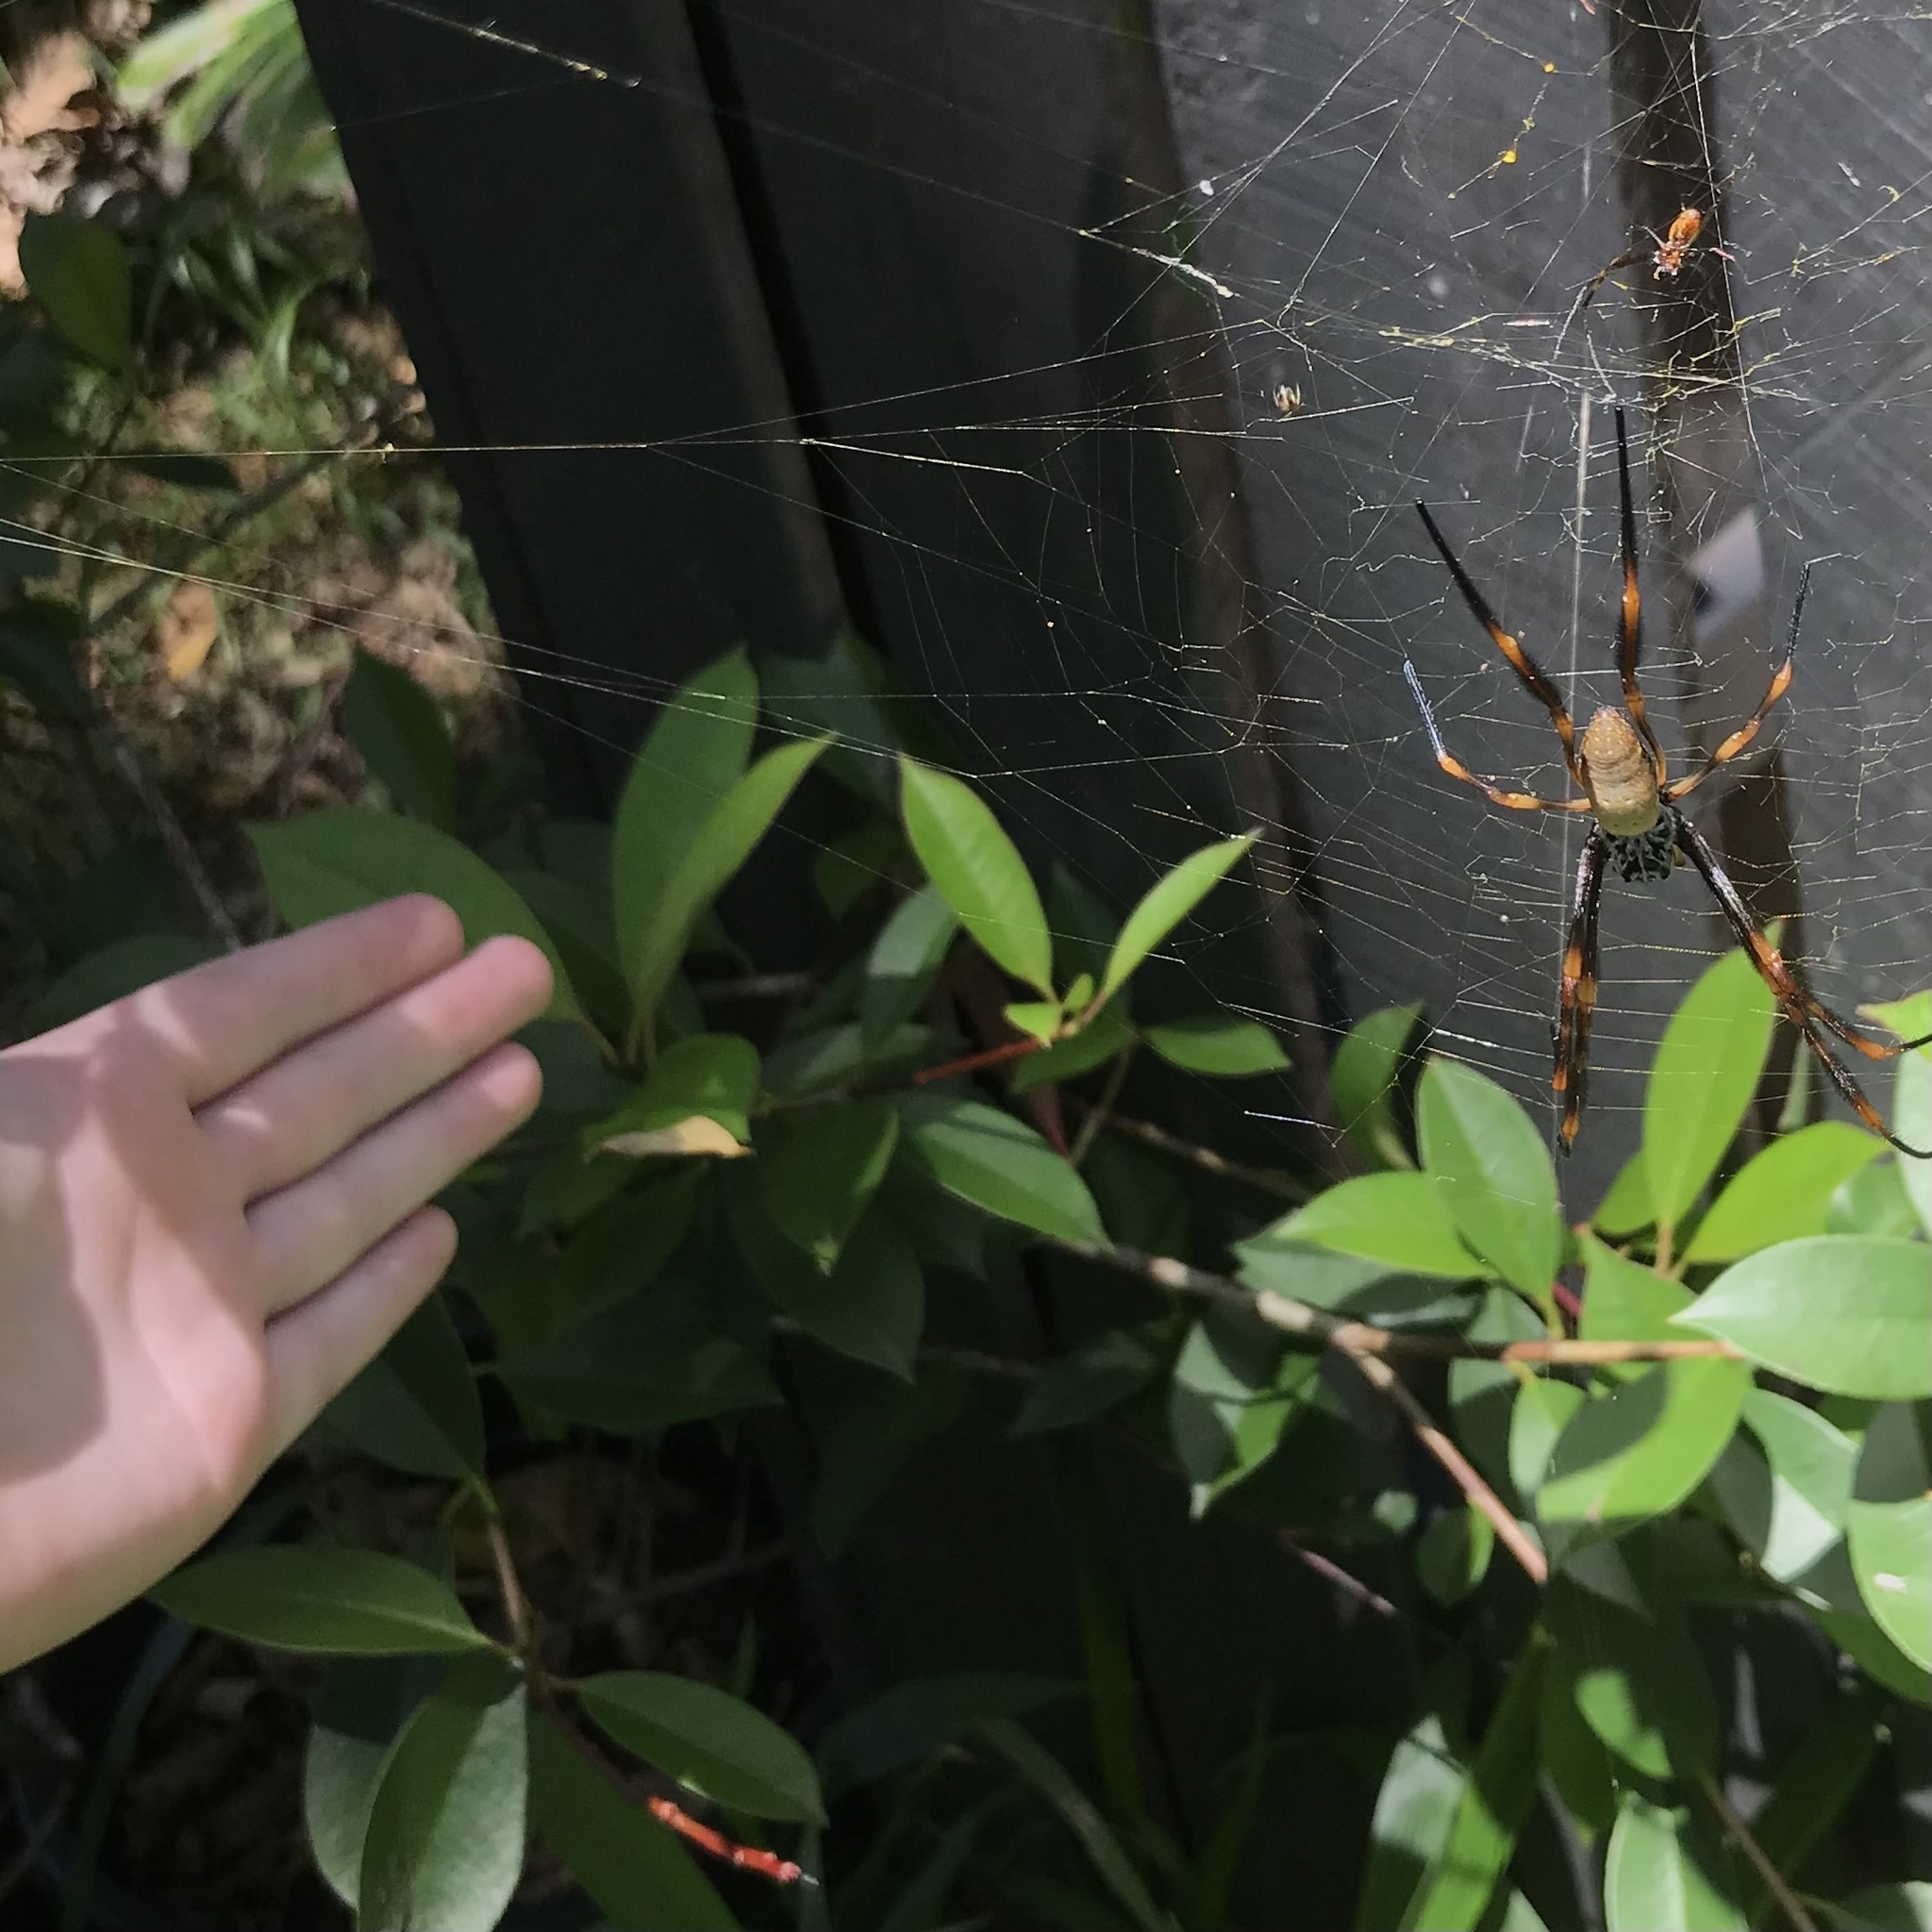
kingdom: Animalia
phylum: Arthropoda
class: Arachnida
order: Araneae
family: Araneidae
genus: Trichonephila
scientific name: Trichonephila plumipes
